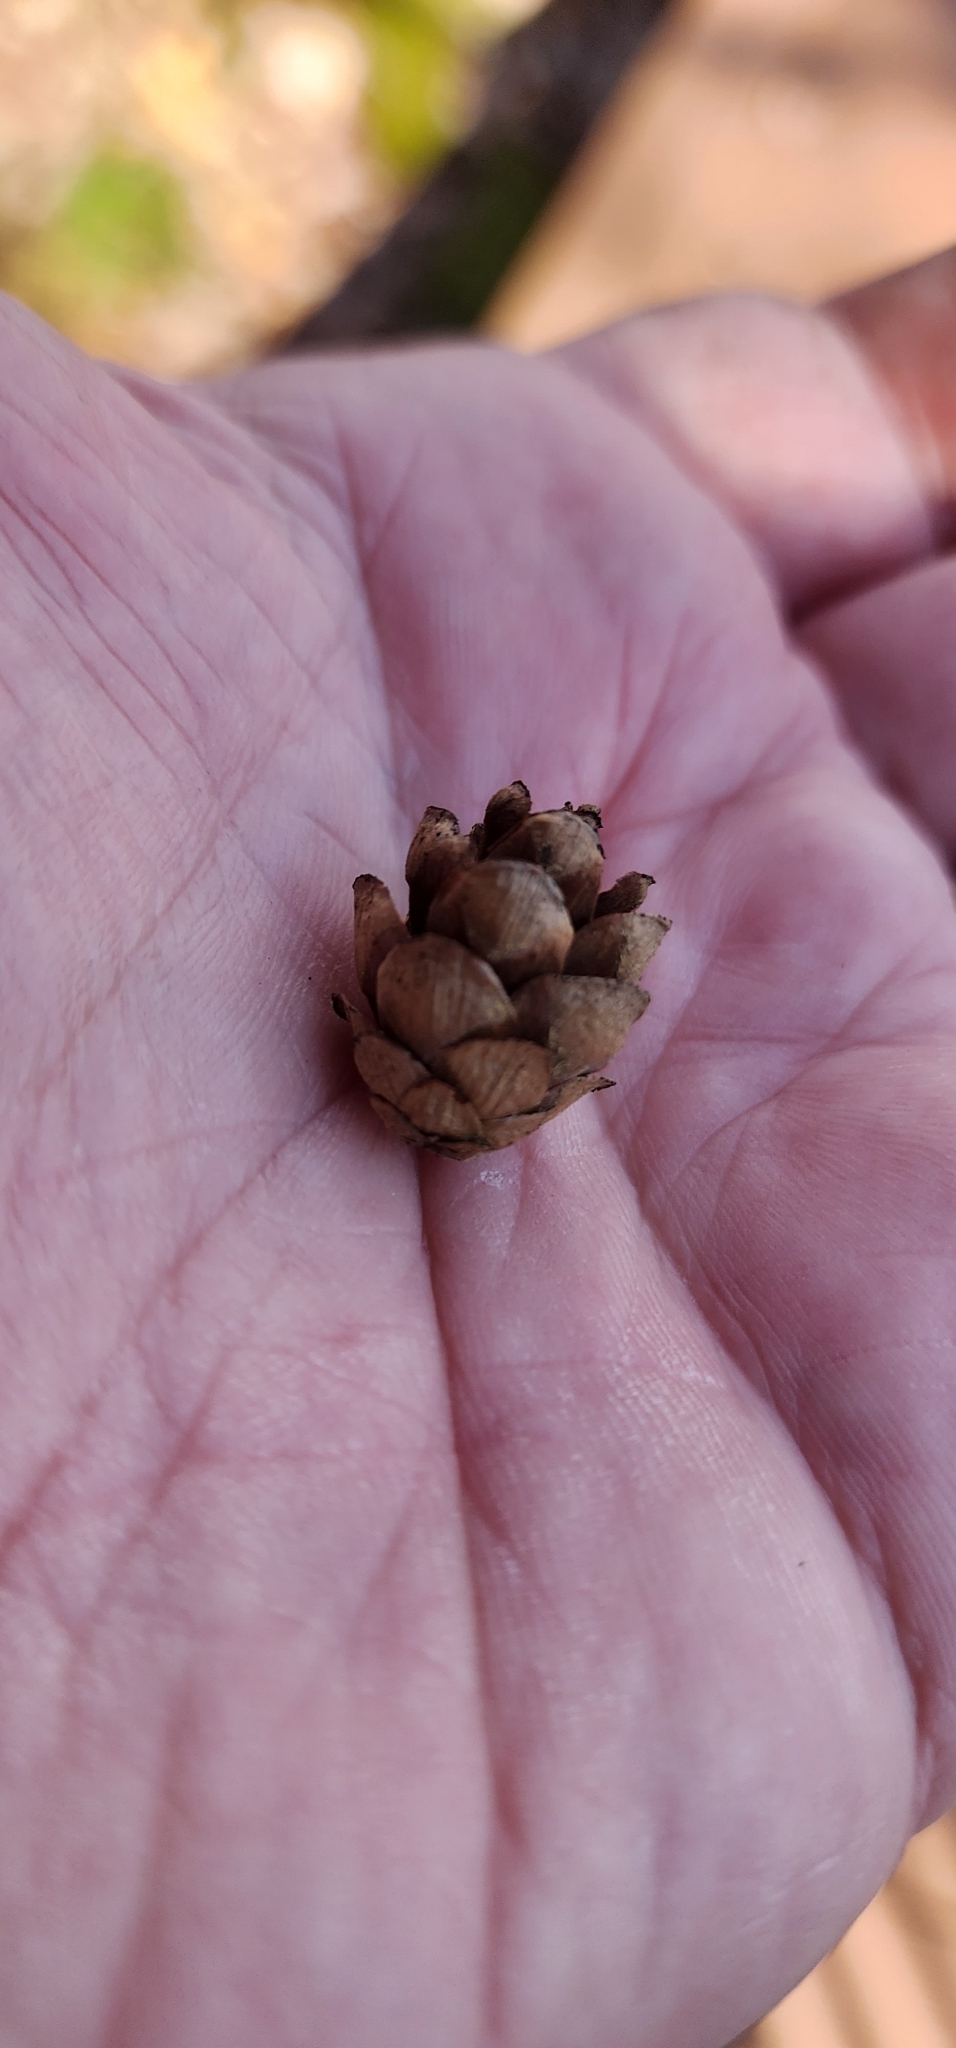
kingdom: Plantae
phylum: Tracheophyta
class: Pinopsida
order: Pinales
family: Pinaceae
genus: Tsuga
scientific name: Tsuga canadensis
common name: Eastern hemlock
